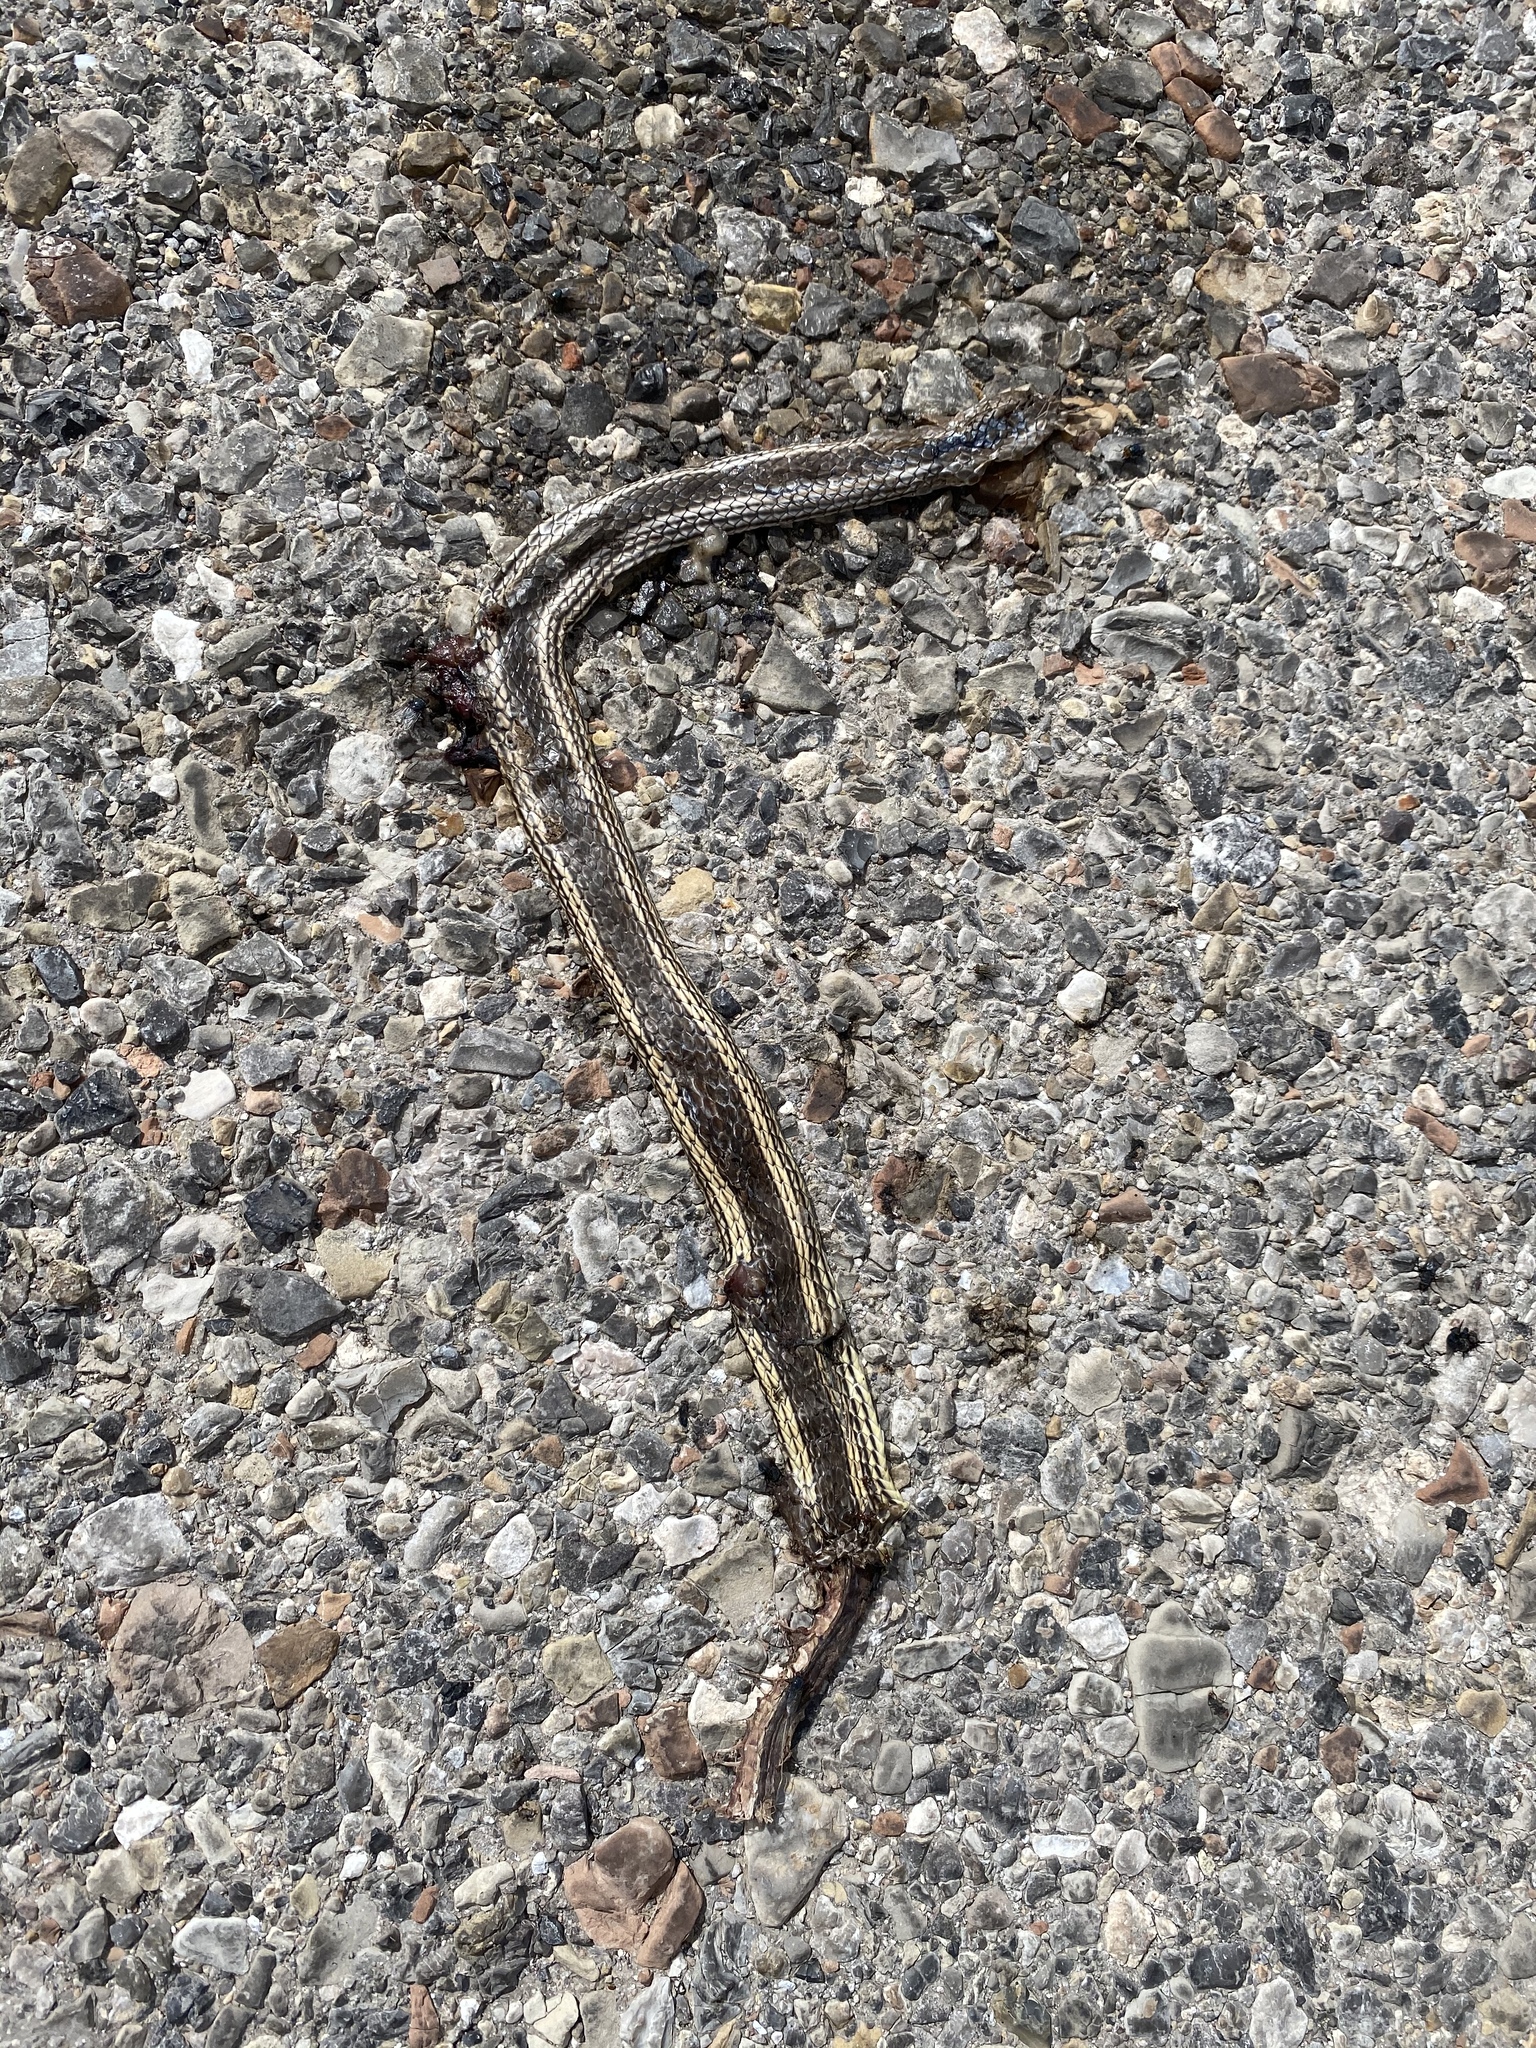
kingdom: Animalia
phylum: Chordata
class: Squamata
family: Colubridae
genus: Masticophis
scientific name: Masticophis taeniatus
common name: Striped whipsnake
